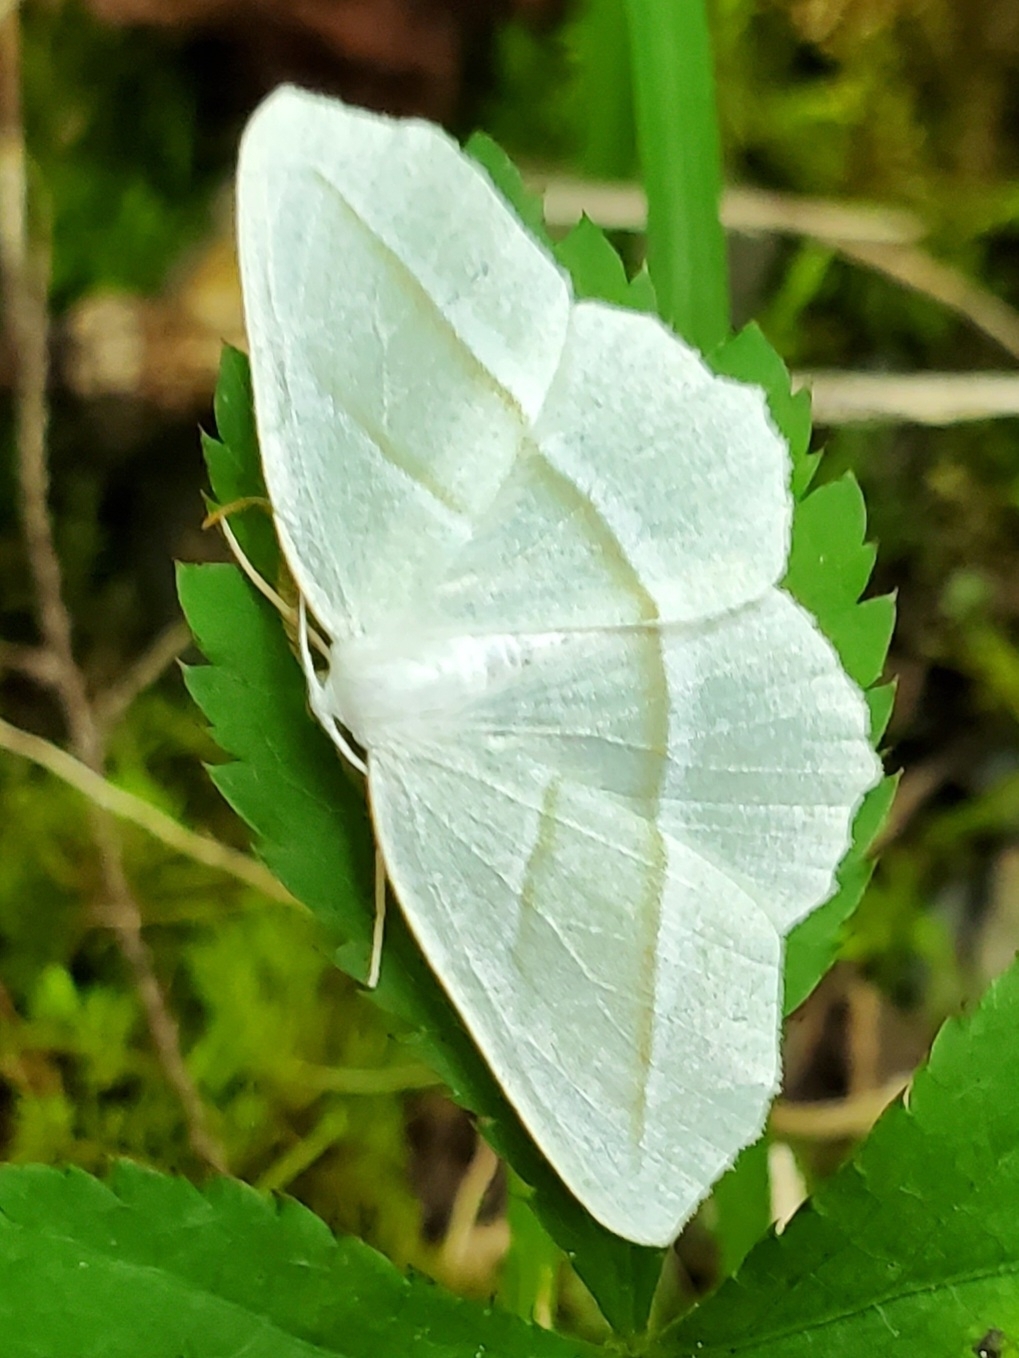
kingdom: Animalia
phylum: Arthropoda
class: Insecta
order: Lepidoptera
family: Geometridae
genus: Campaea
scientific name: Campaea perlata
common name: Fringed looper
